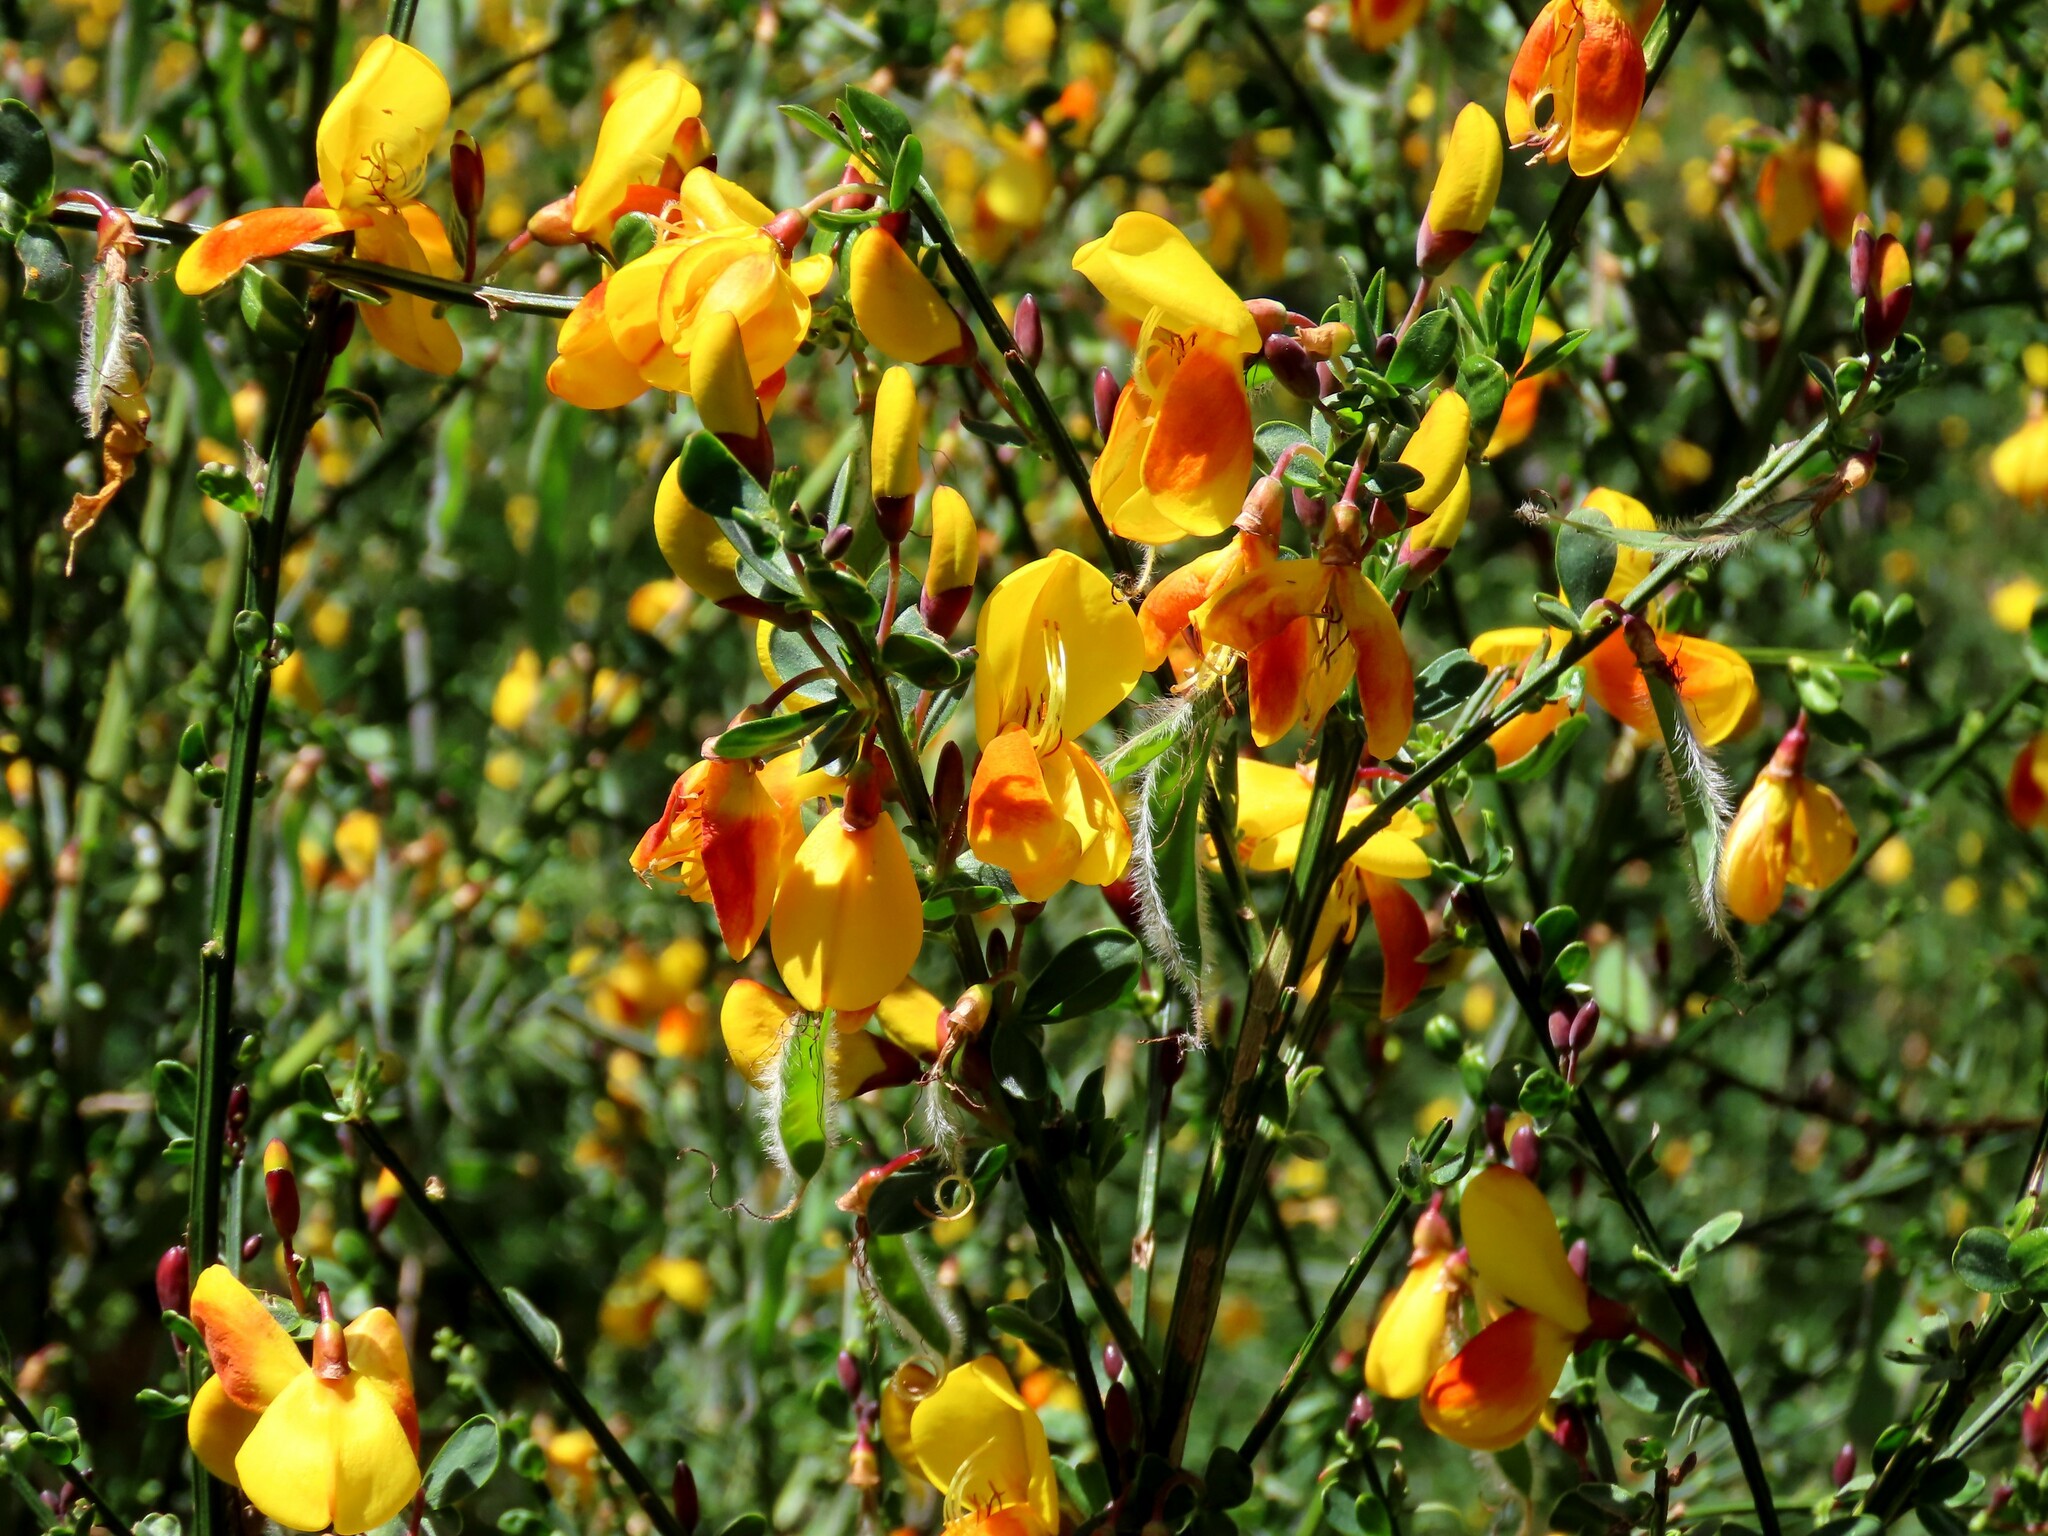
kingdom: Plantae
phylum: Tracheophyta
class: Magnoliopsida
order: Fabales
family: Fabaceae
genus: Cytisus
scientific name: Cytisus scoparius
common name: Scotch broom
